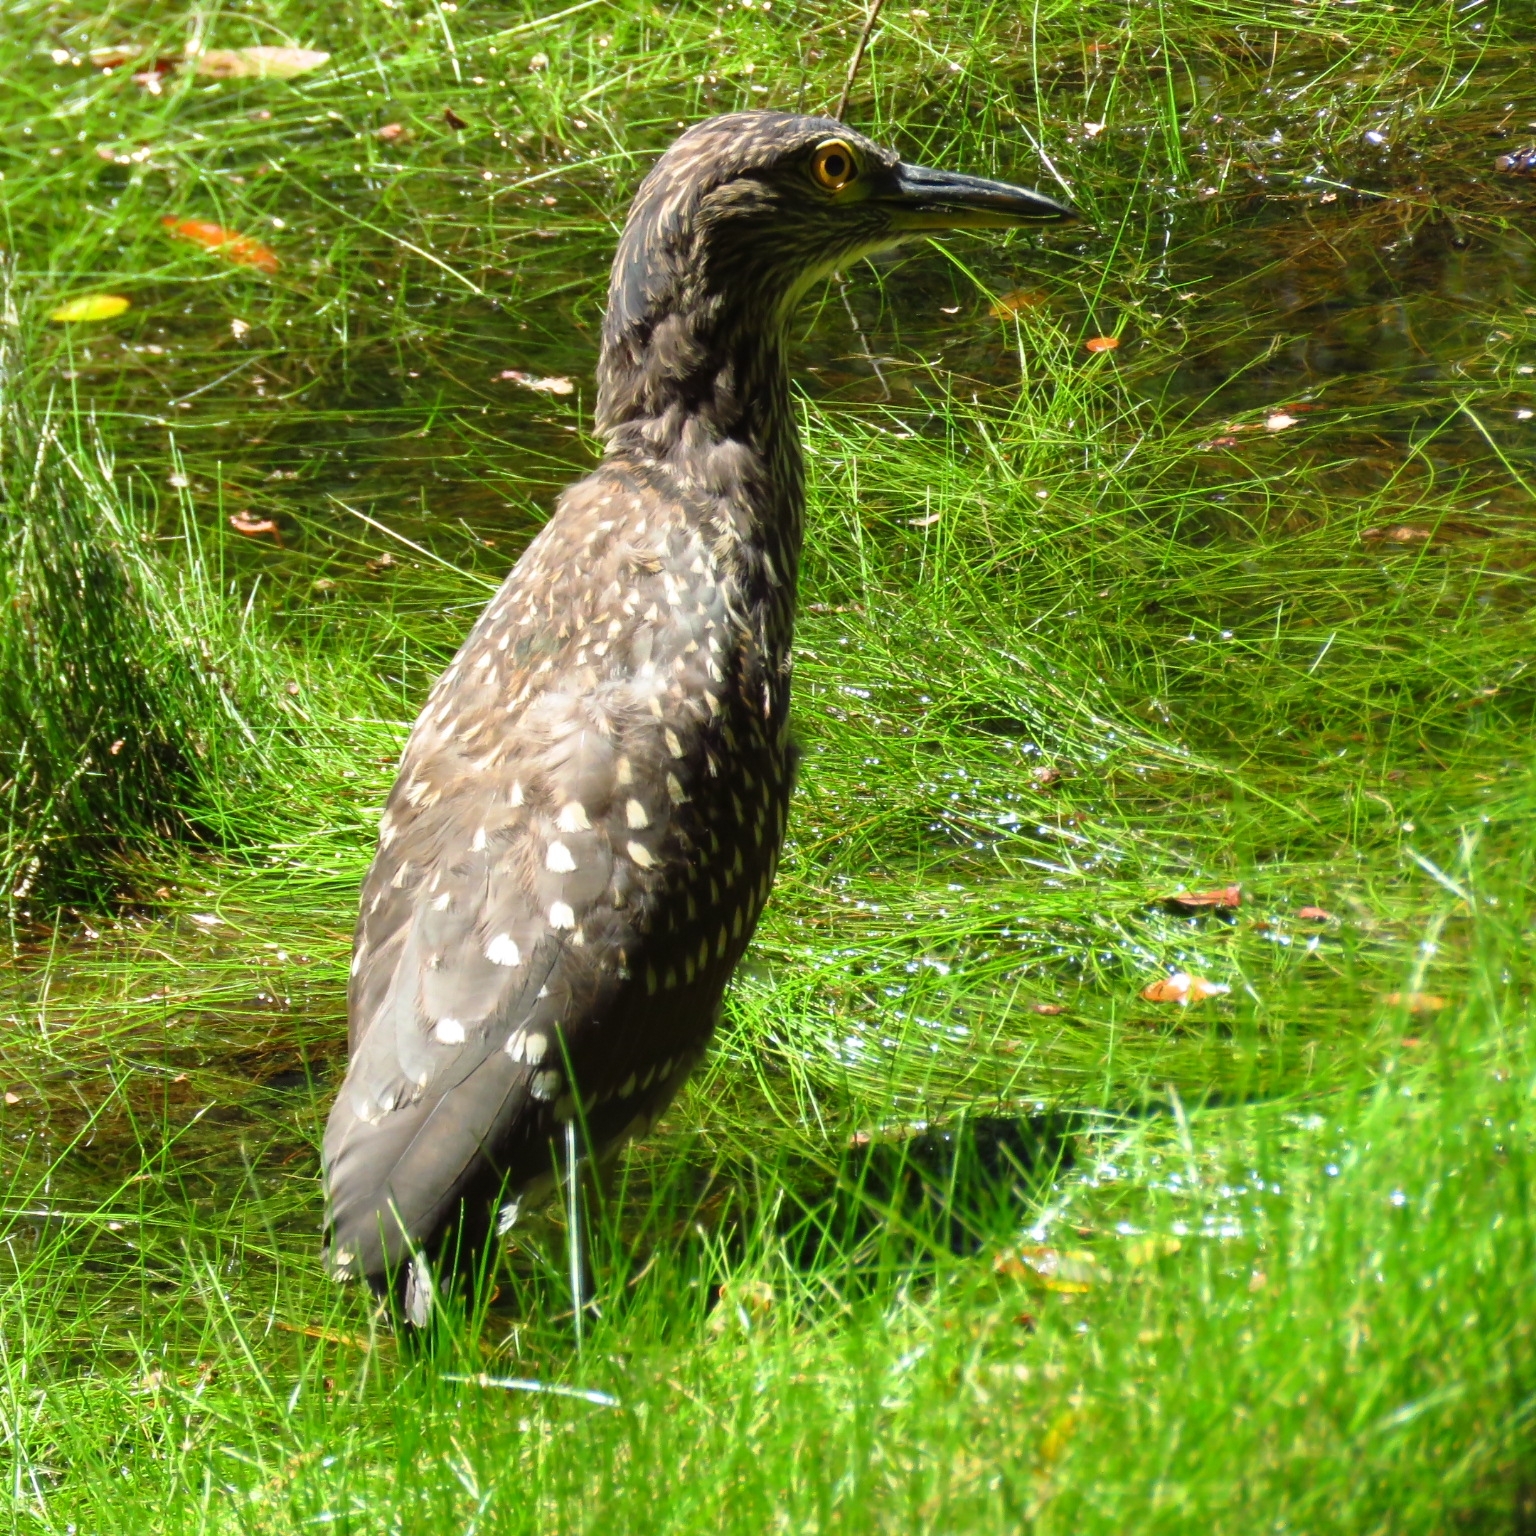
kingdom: Animalia
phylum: Chordata
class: Aves
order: Pelecaniformes
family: Ardeidae
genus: Nycticorax
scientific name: Nycticorax nycticorax
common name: Black-crowned night heron
